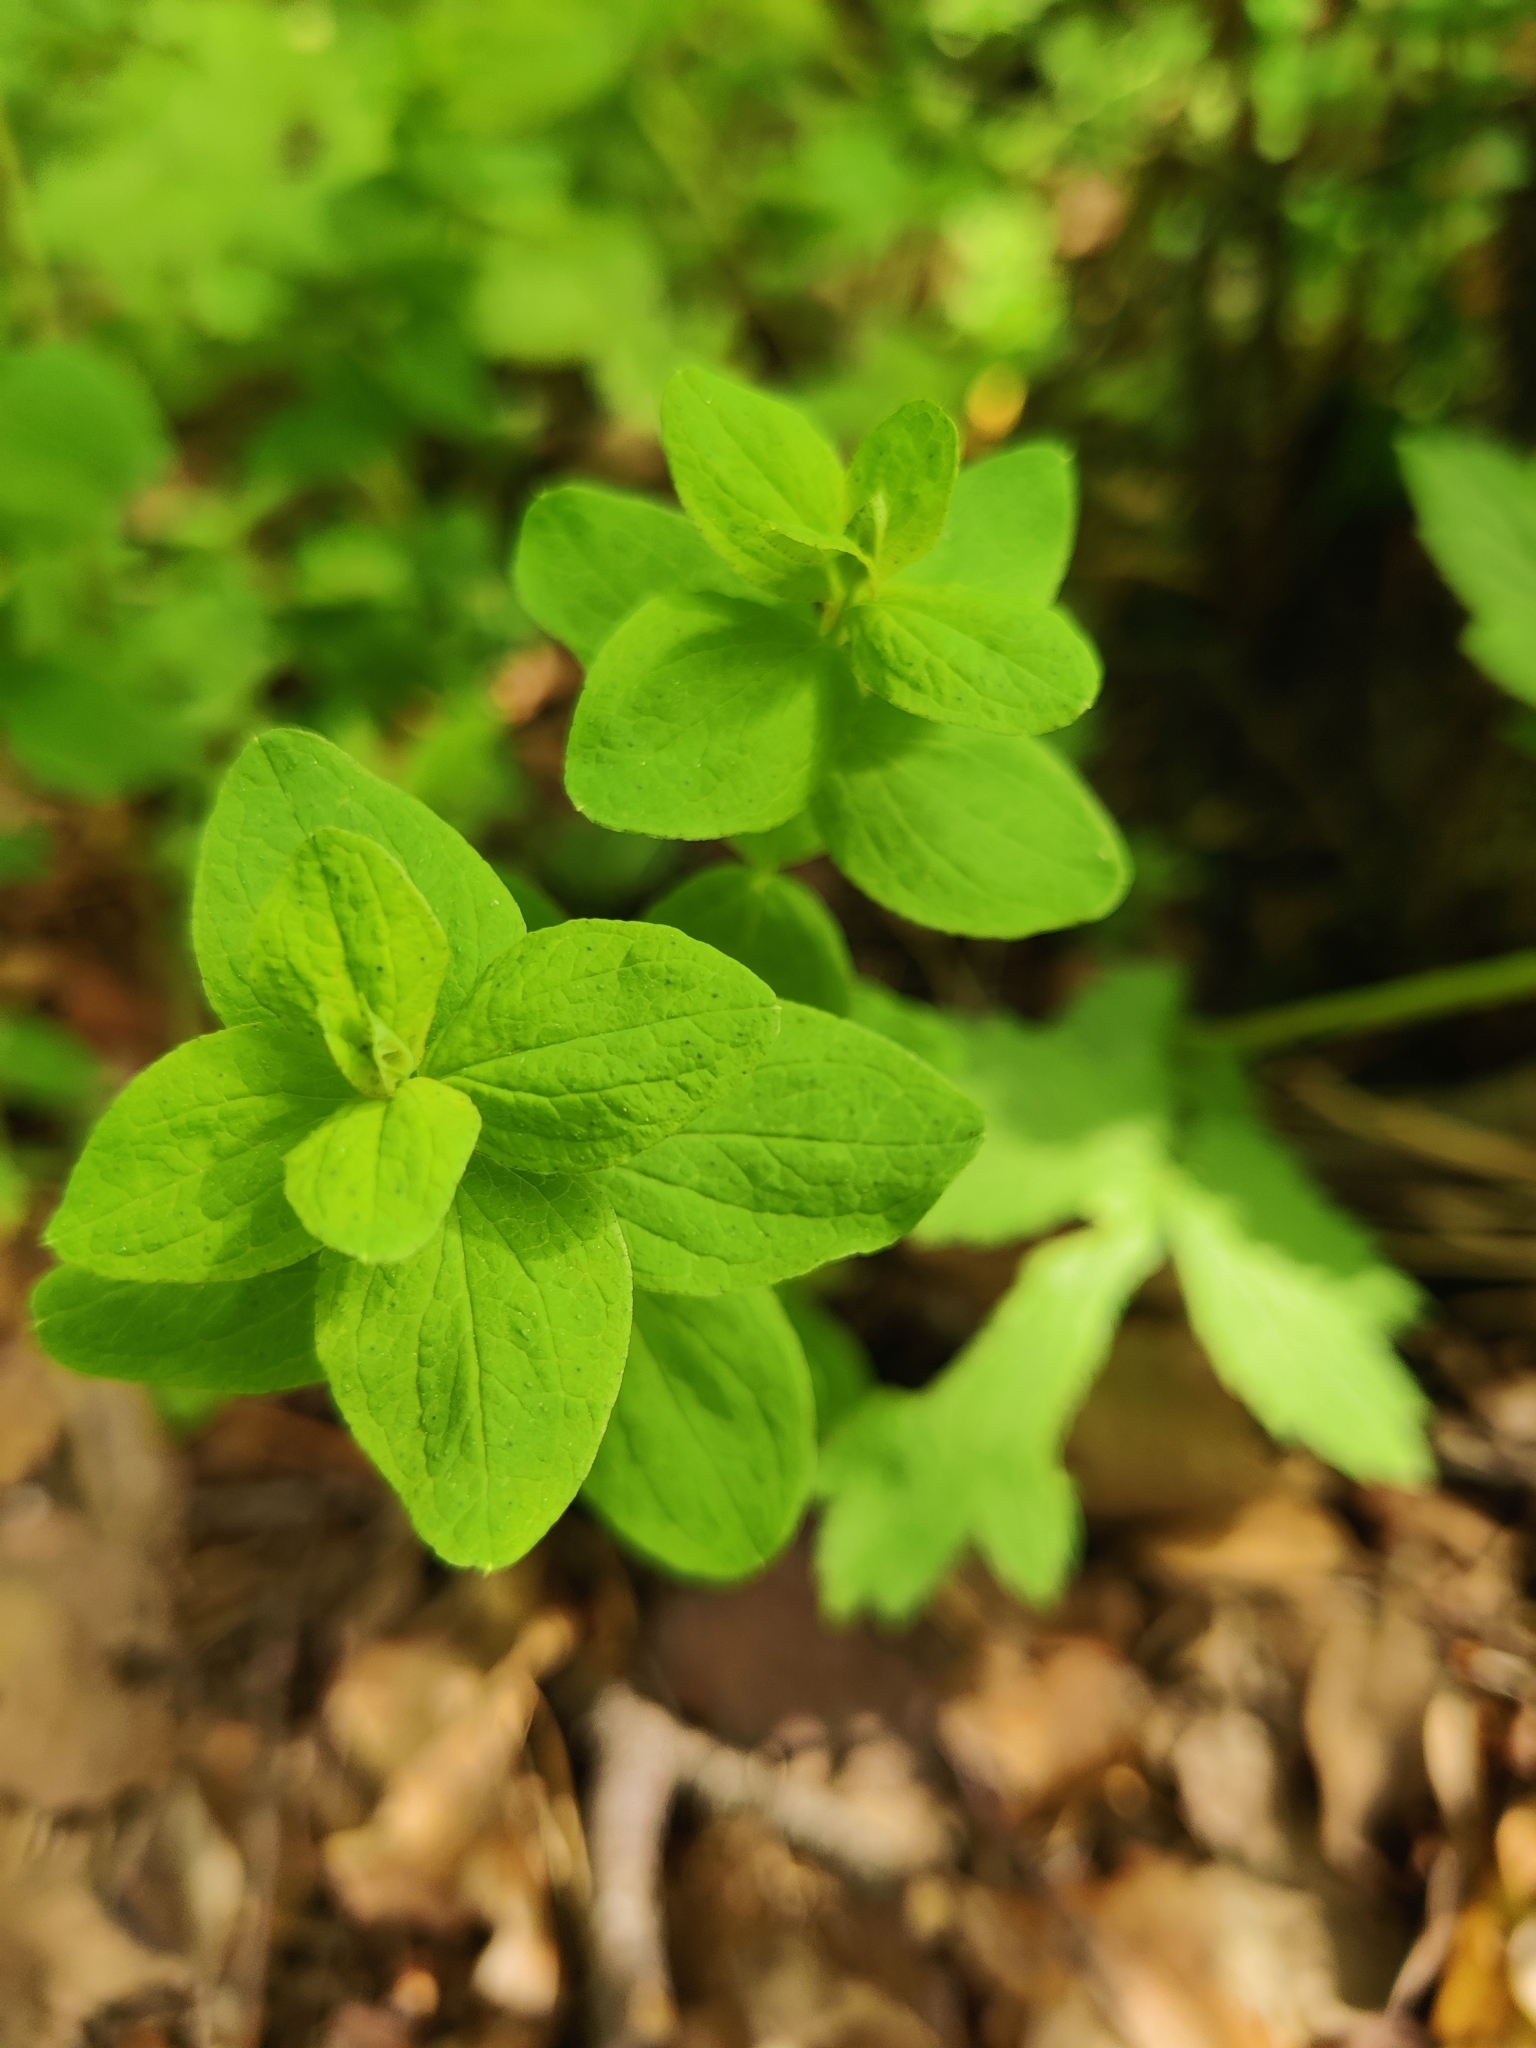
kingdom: Plantae
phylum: Tracheophyta
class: Magnoliopsida
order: Malpighiales
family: Hypericaceae
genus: Hypericum
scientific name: Hypericum maculatum
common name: Imperforate st. john's-wort
